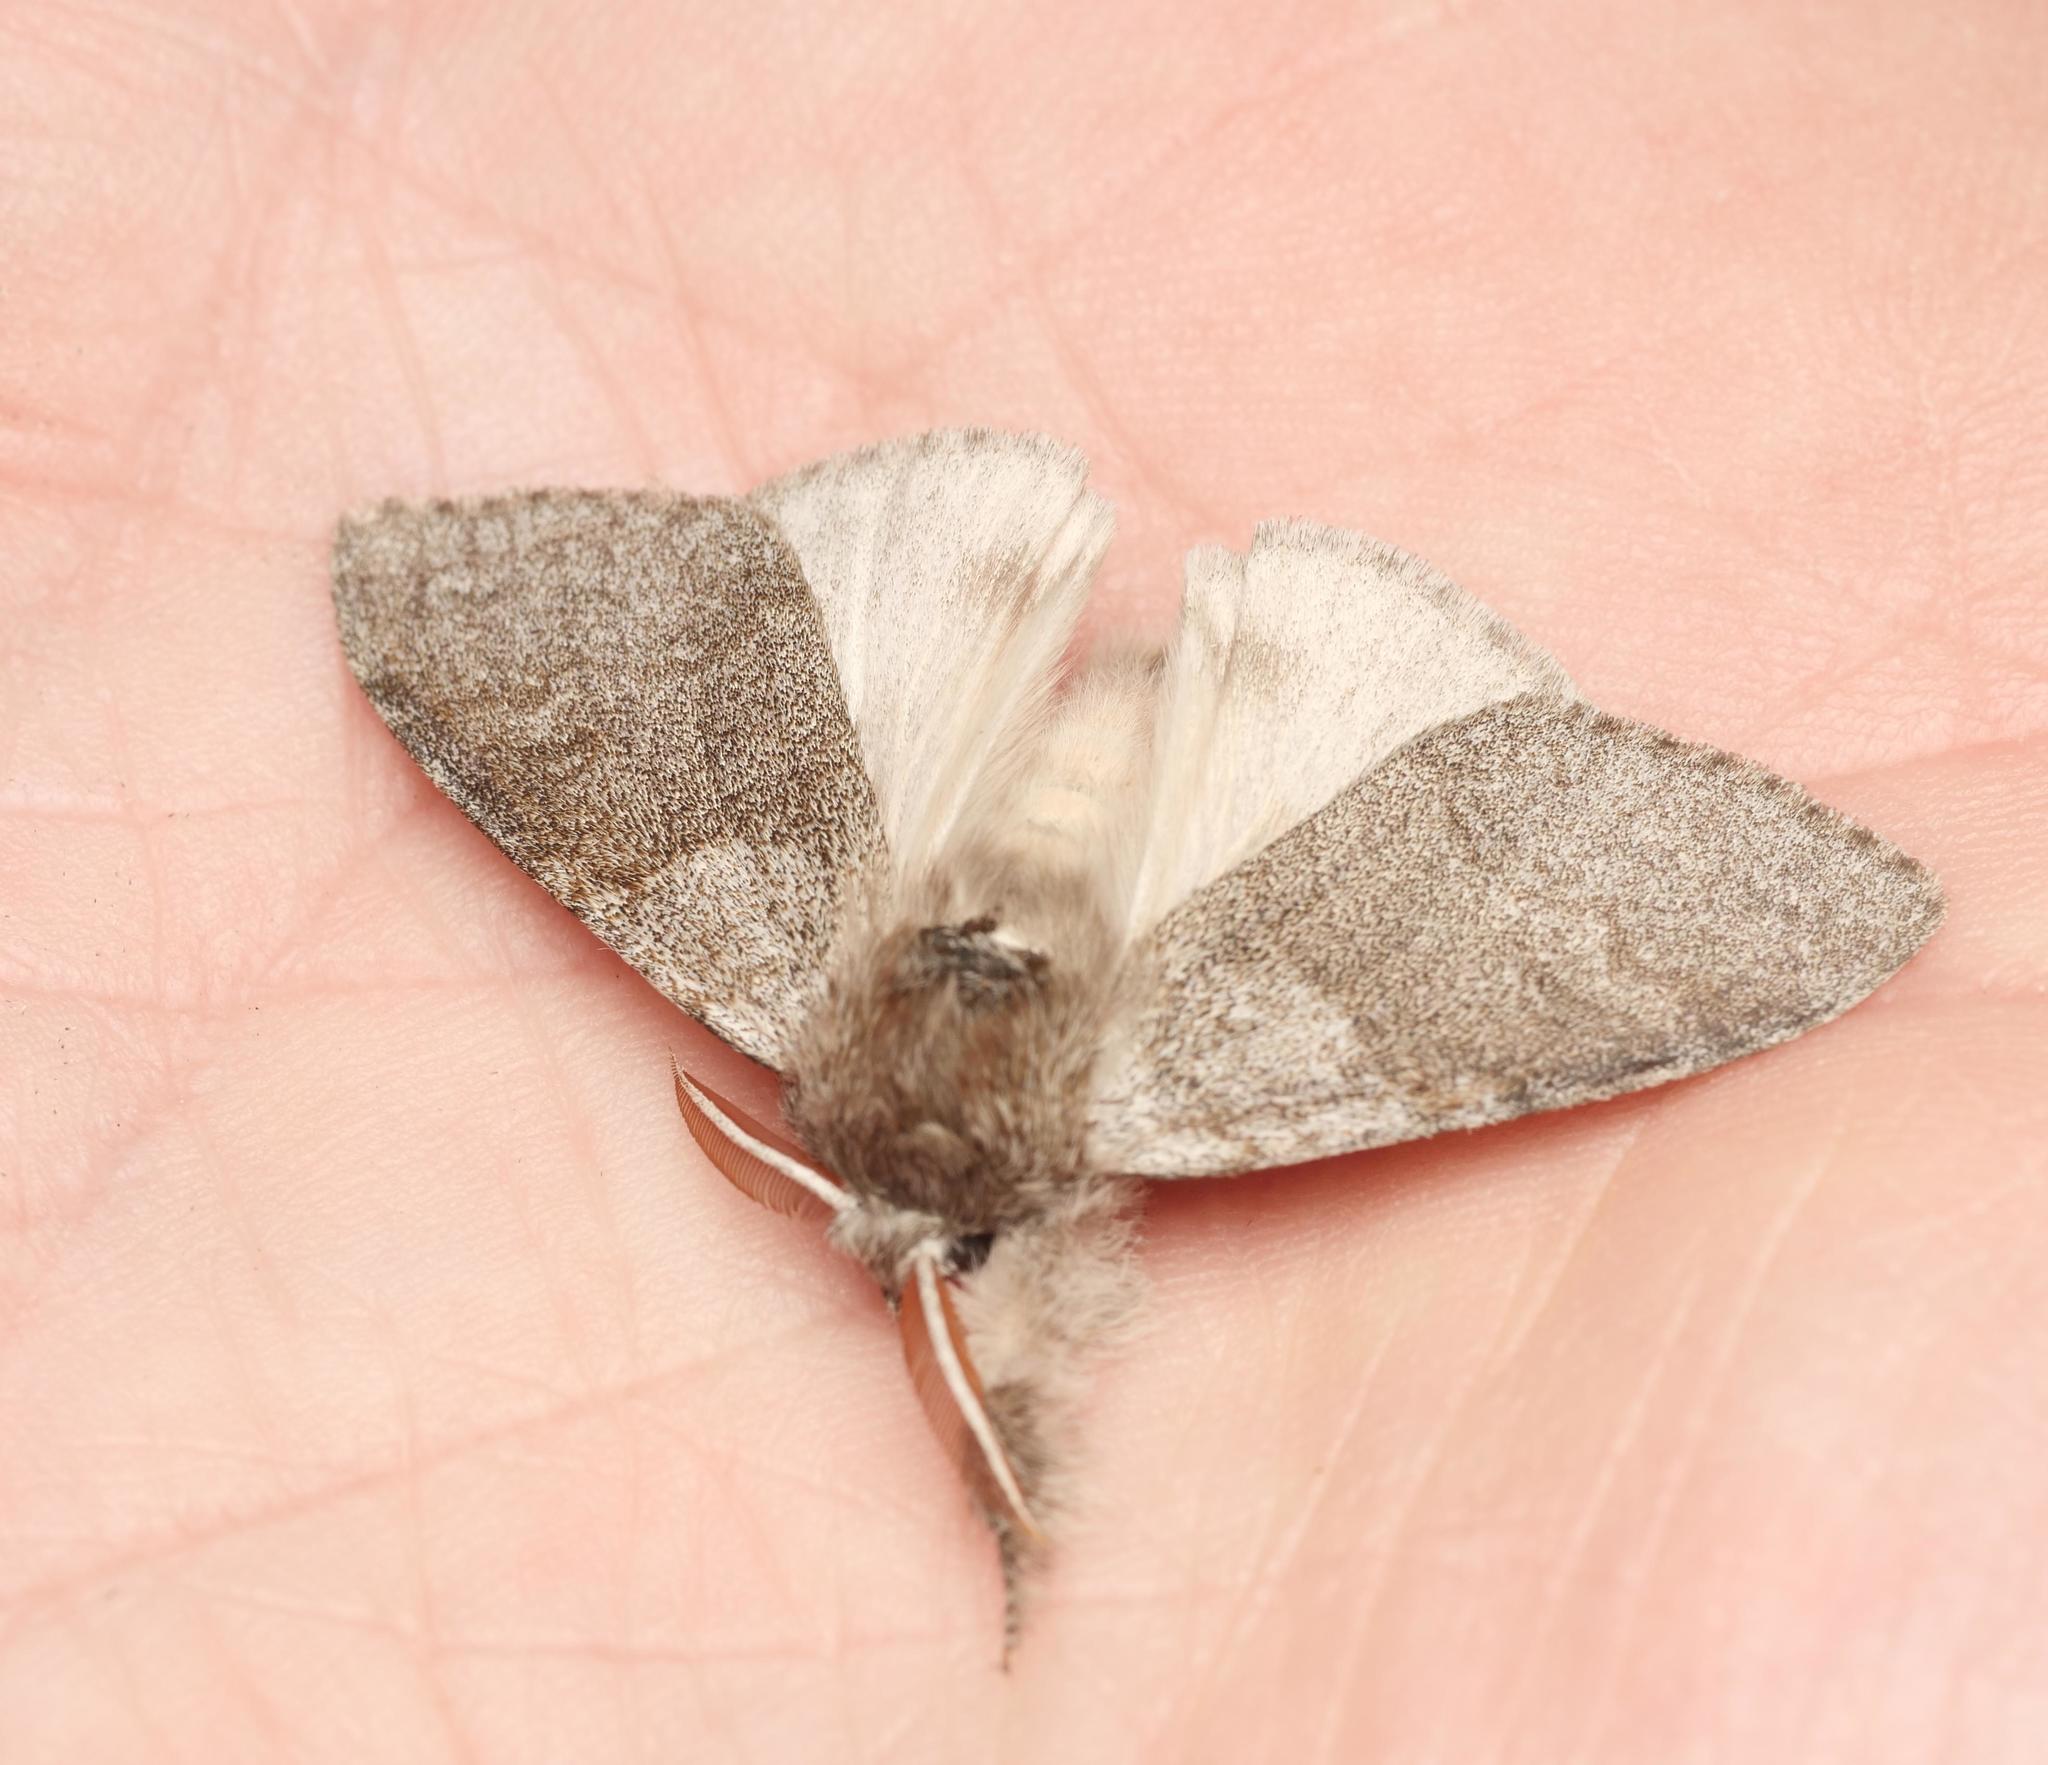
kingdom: Animalia
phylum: Arthropoda
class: Insecta
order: Lepidoptera
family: Erebidae
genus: Calliteara
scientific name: Calliteara pudibunda
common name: Pale tussock
